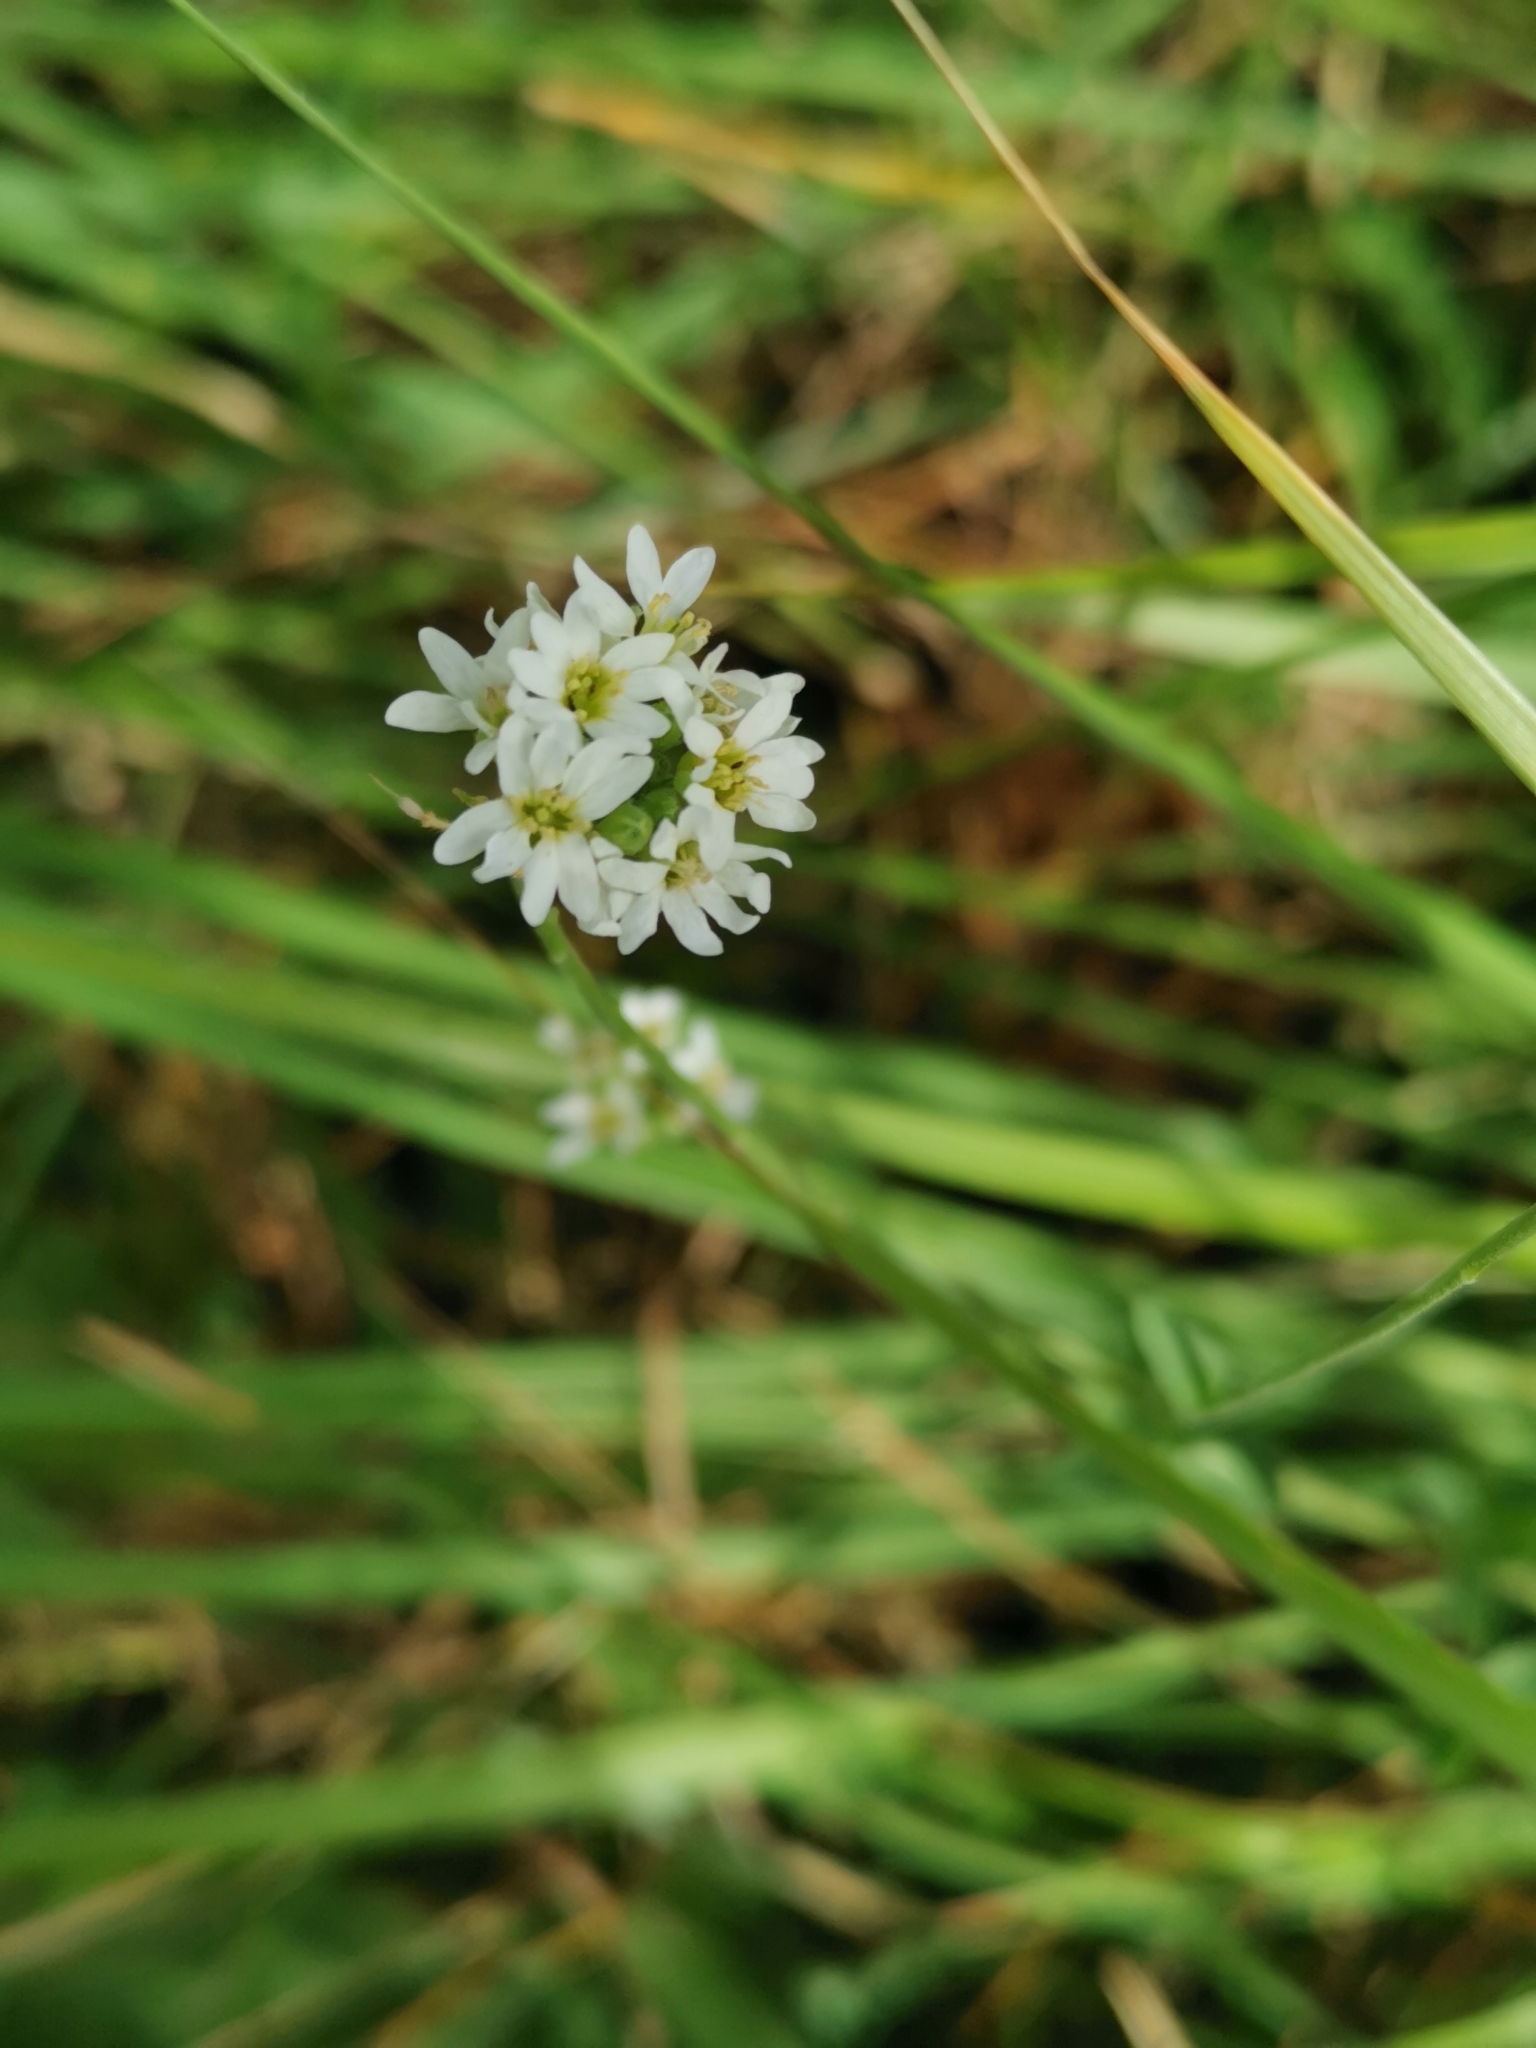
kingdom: Plantae
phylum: Tracheophyta
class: Magnoliopsida
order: Brassicales
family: Brassicaceae
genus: Berteroa
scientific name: Berteroa incana
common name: Hoary alison
